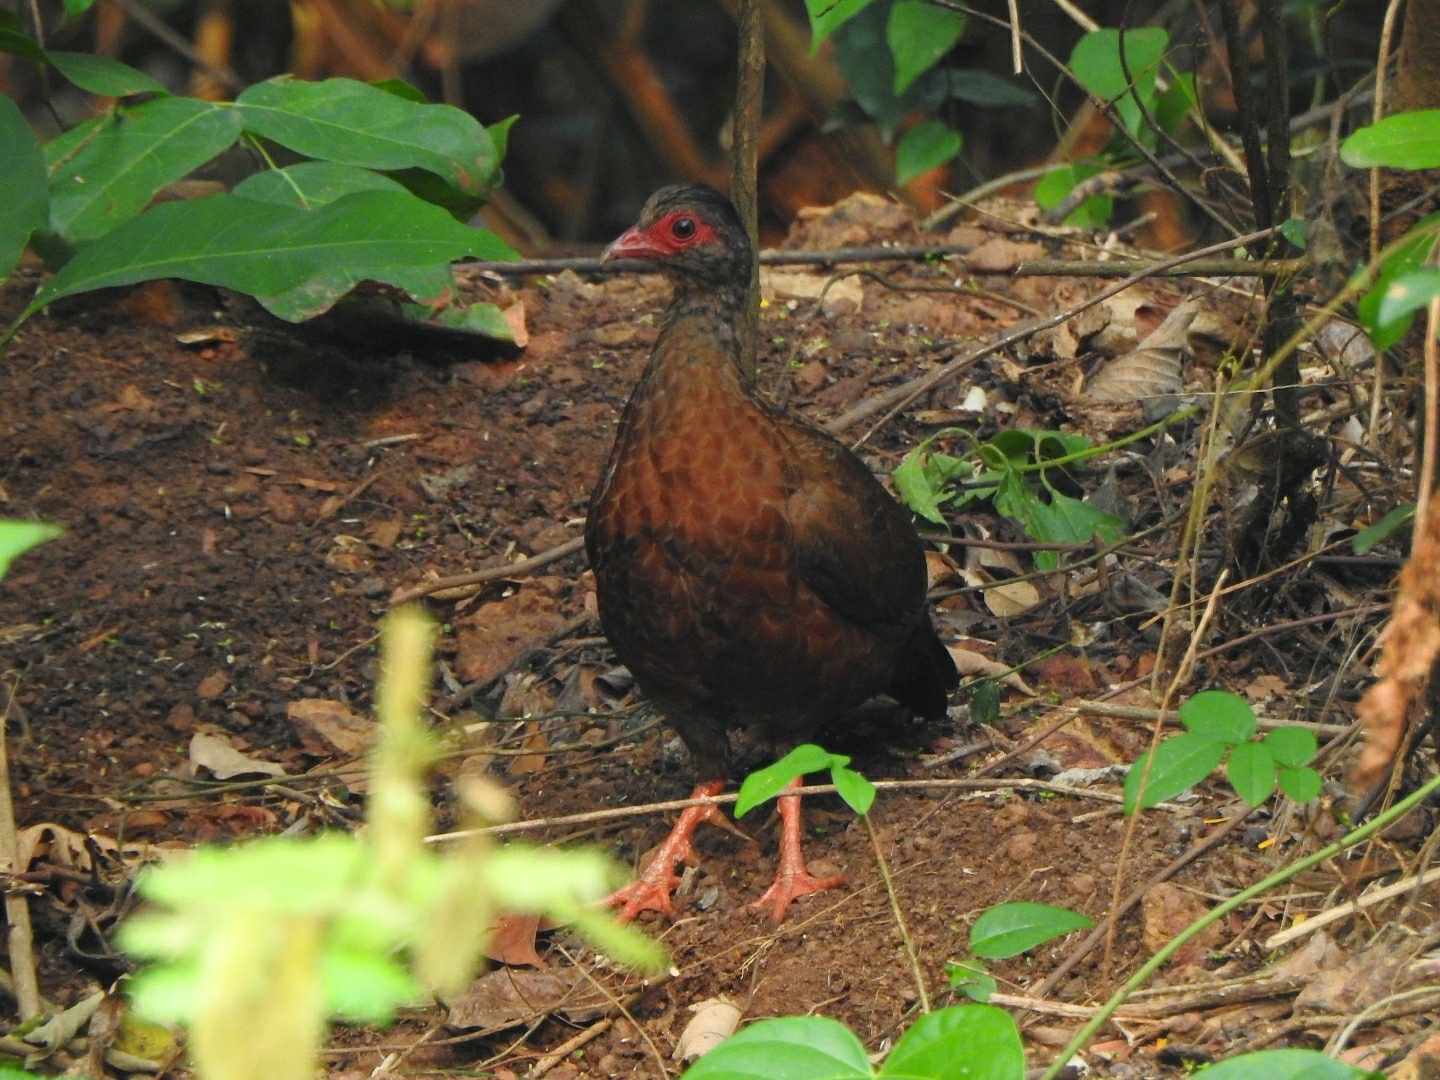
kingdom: Animalia
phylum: Chordata
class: Aves
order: Galliformes
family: Phasianidae
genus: Galloperdix
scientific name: Galloperdix spadicea
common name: Red spurfowl
